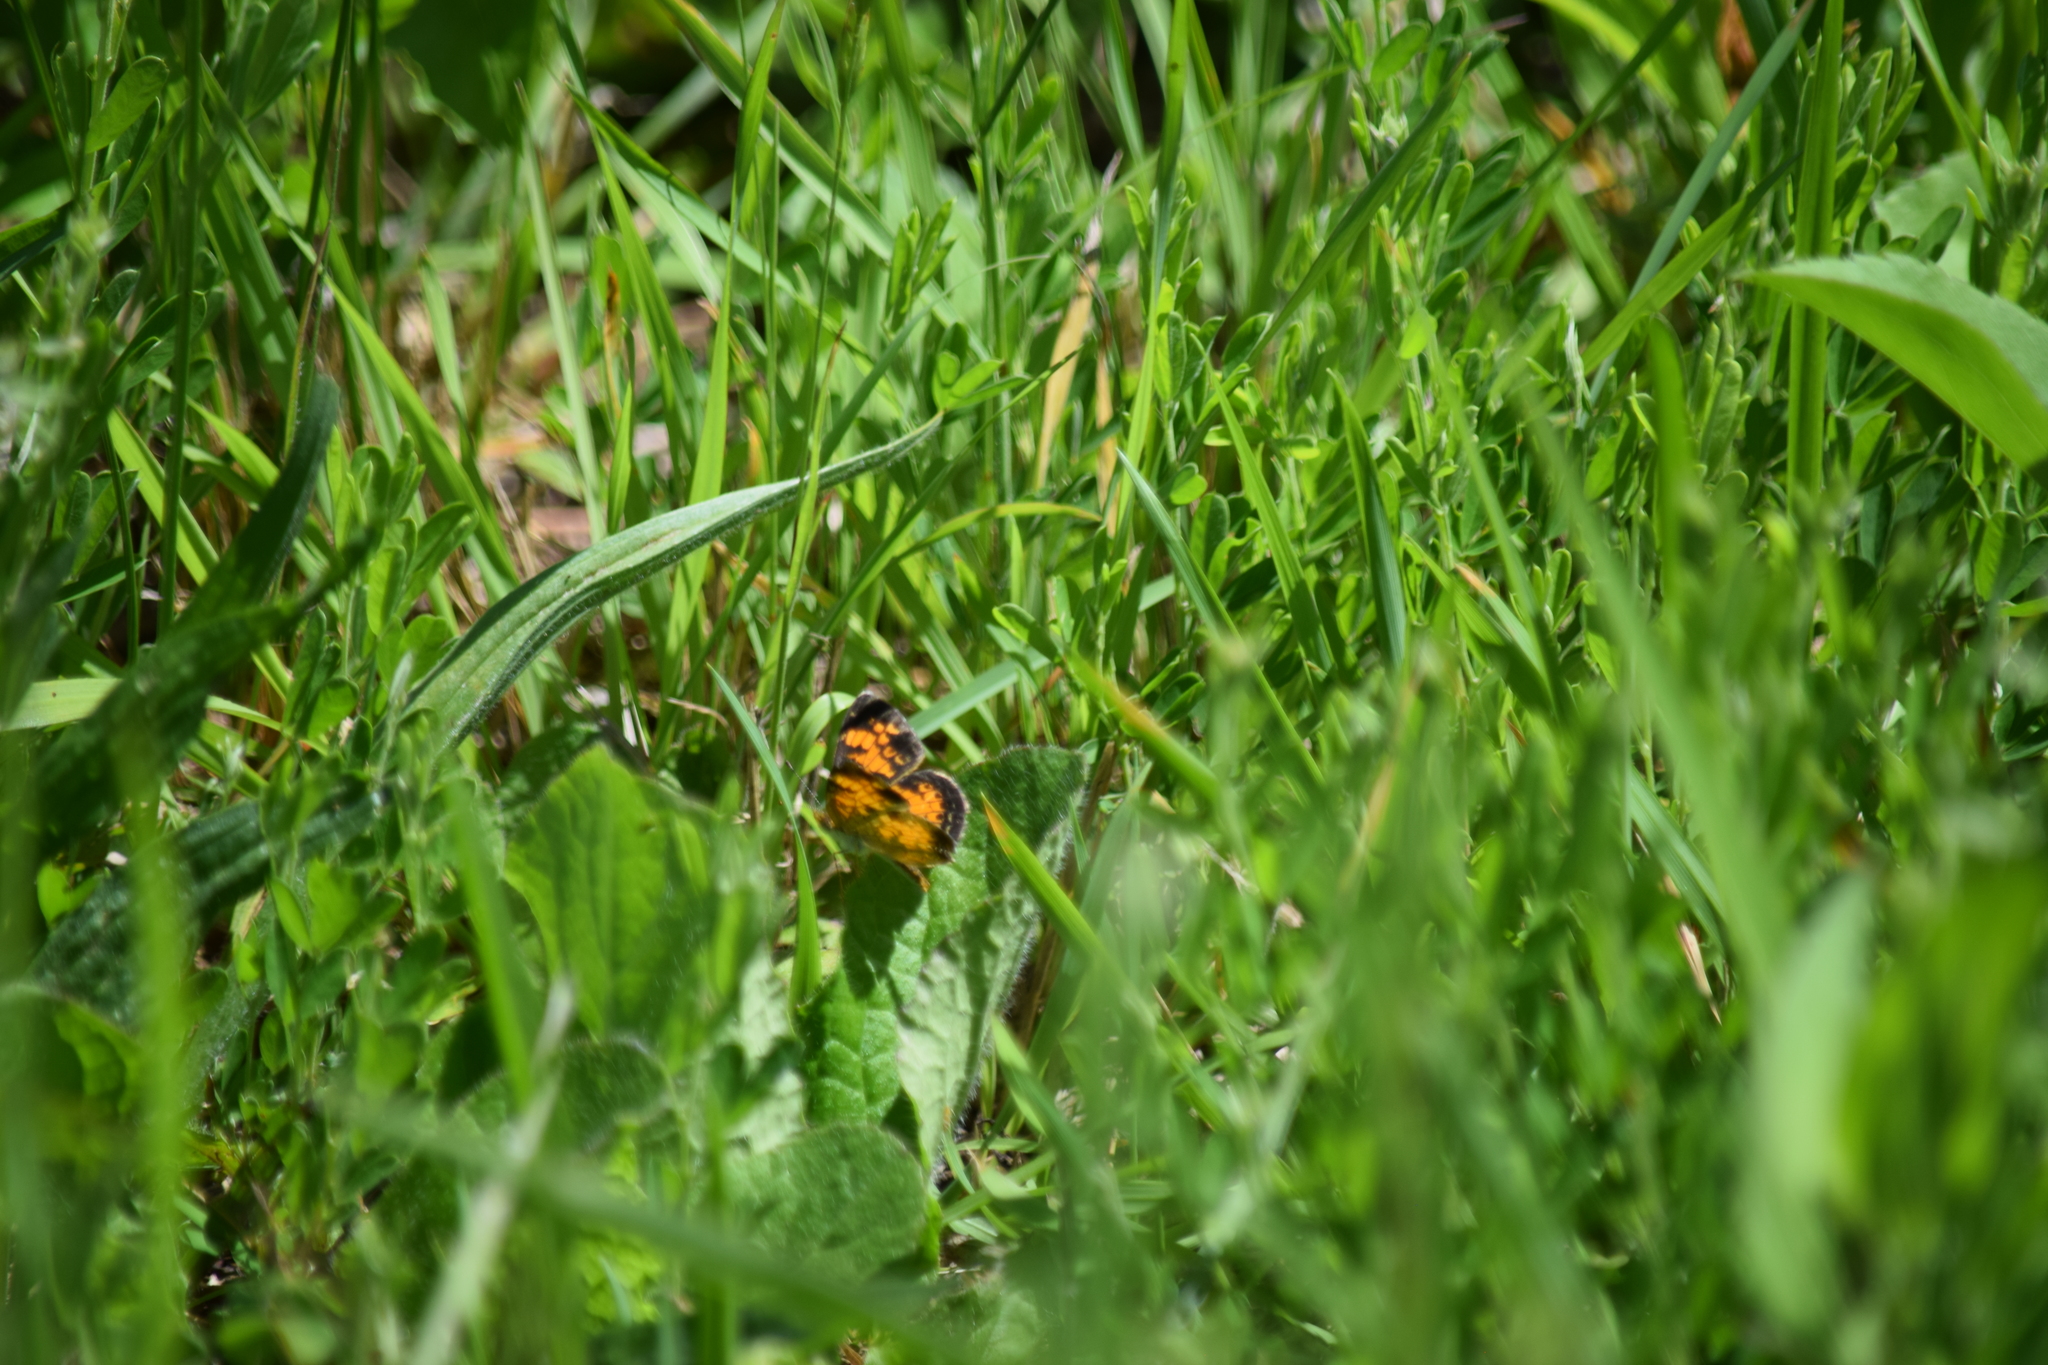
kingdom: Animalia
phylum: Arthropoda
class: Insecta
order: Lepidoptera
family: Nymphalidae
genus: Phyciodes
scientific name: Phyciodes tharos
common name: Pearl crescent
